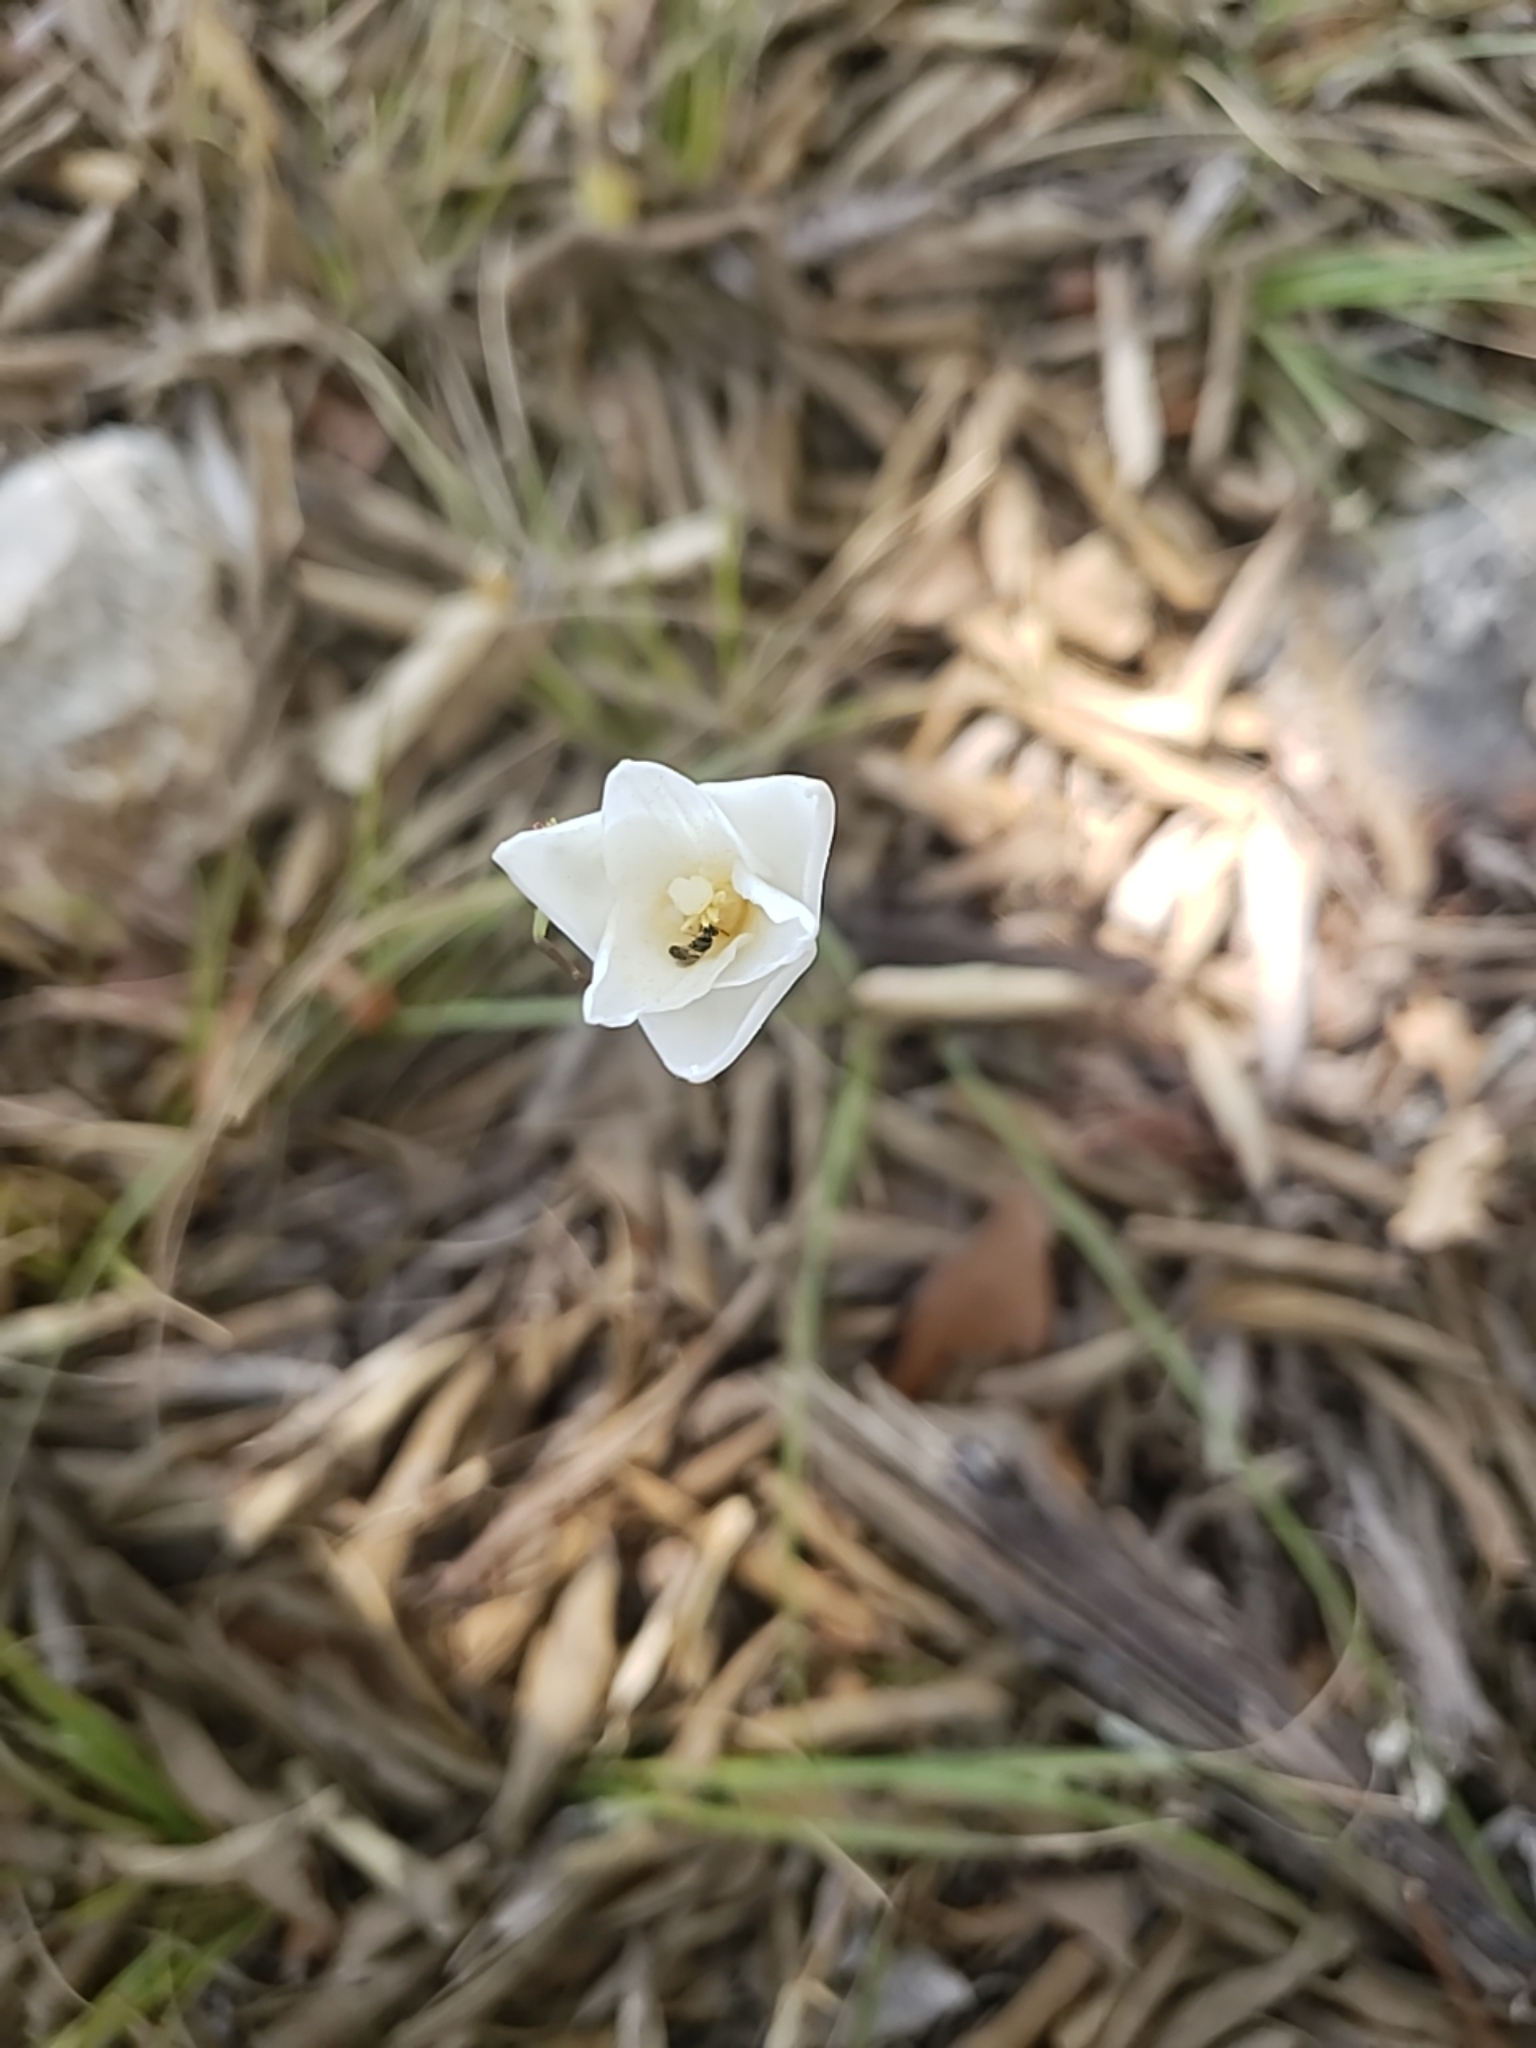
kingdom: Plantae
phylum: Tracheophyta
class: Liliopsida
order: Asparagales
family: Amaryllidaceae
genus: Zephyranthes
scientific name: Zephyranthes chlorosolen
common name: Evening rain-lily
